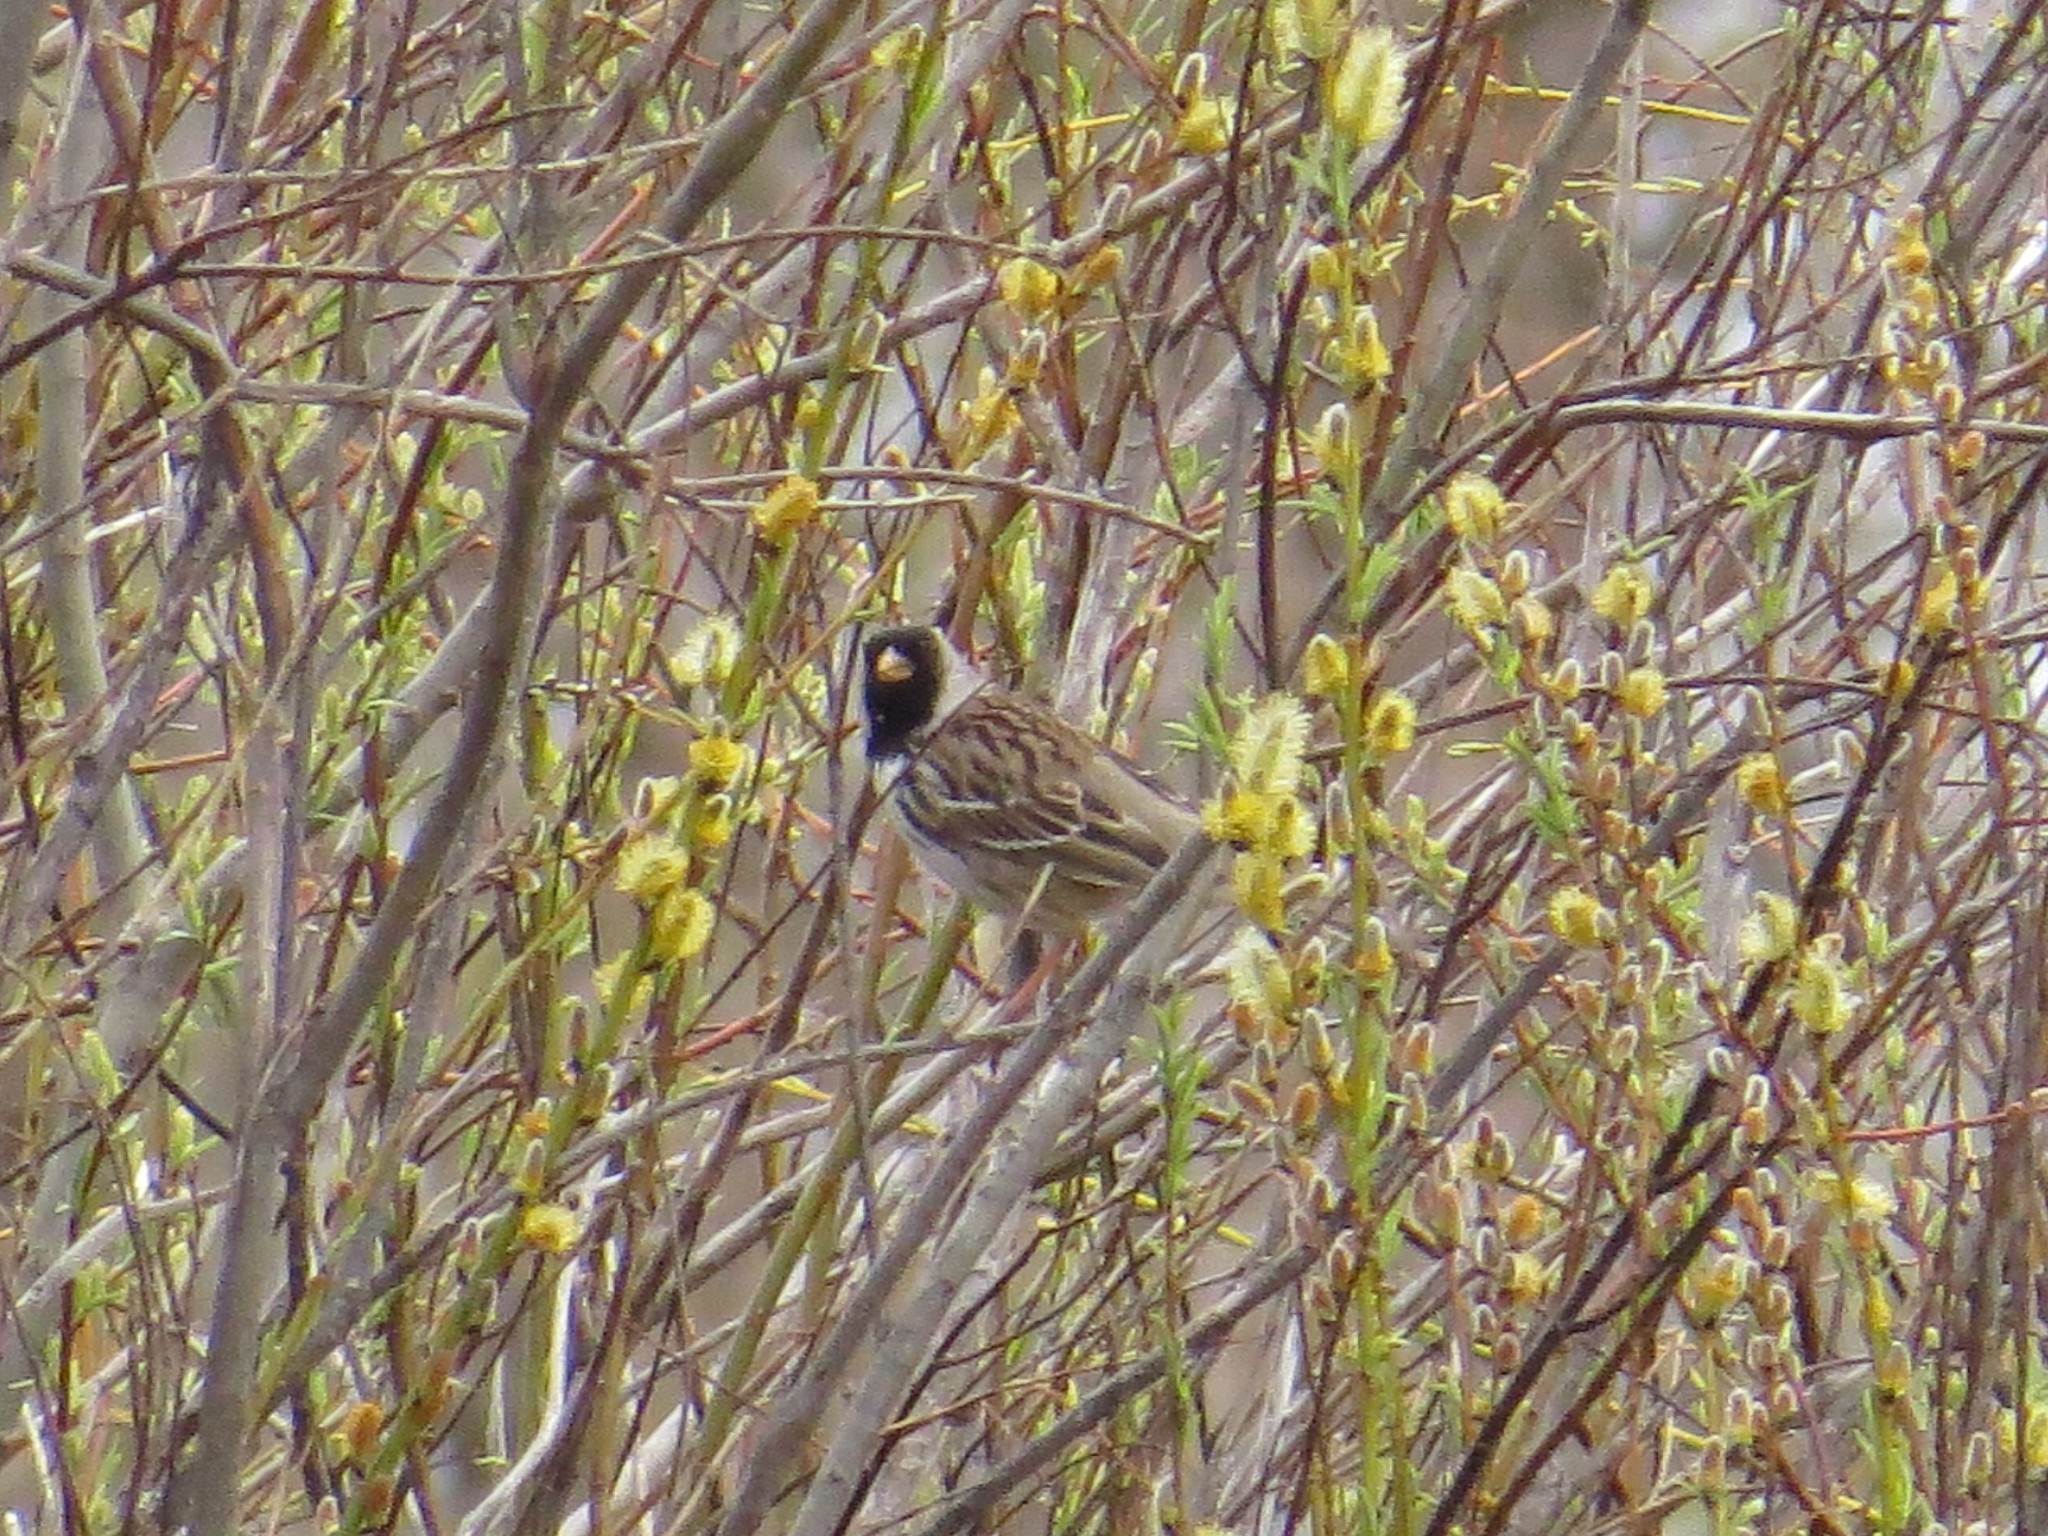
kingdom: Animalia
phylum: Chordata
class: Aves
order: Passeriformes
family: Passerellidae
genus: Zonotrichia
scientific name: Zonotrichia querula
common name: Harris's sparrow
